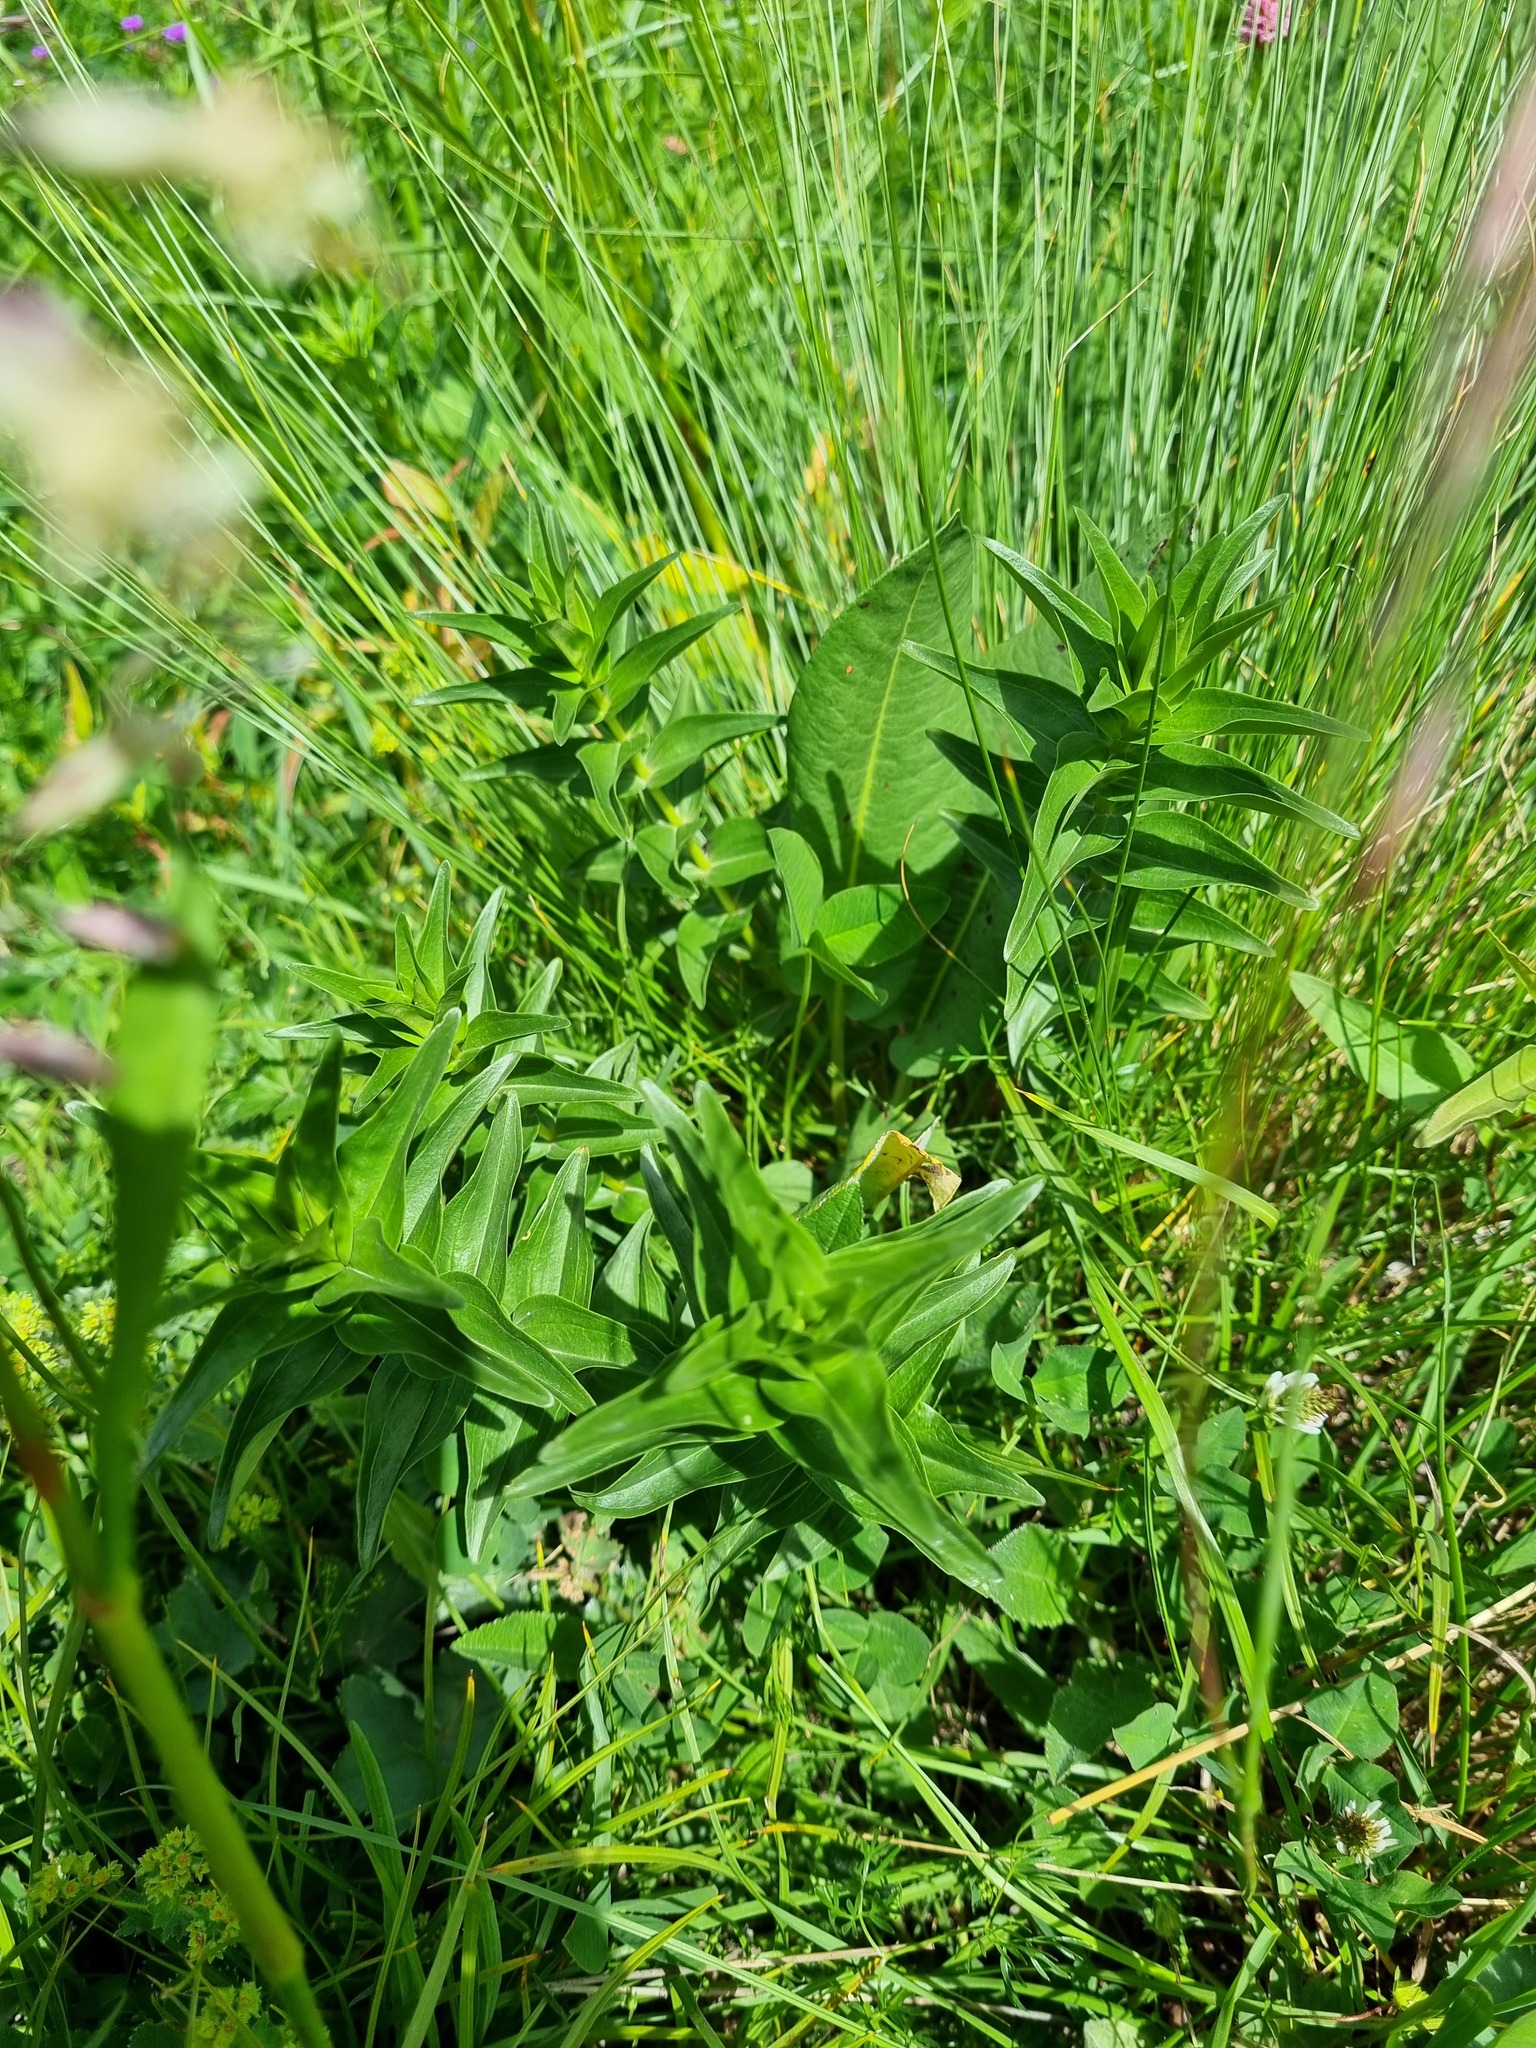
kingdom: Plantae
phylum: Tracheophyta
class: Magnoliopsida
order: Gentianales
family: Gentianaceae
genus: Gentiana
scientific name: Gentiana septemfida
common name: Crested gentian
